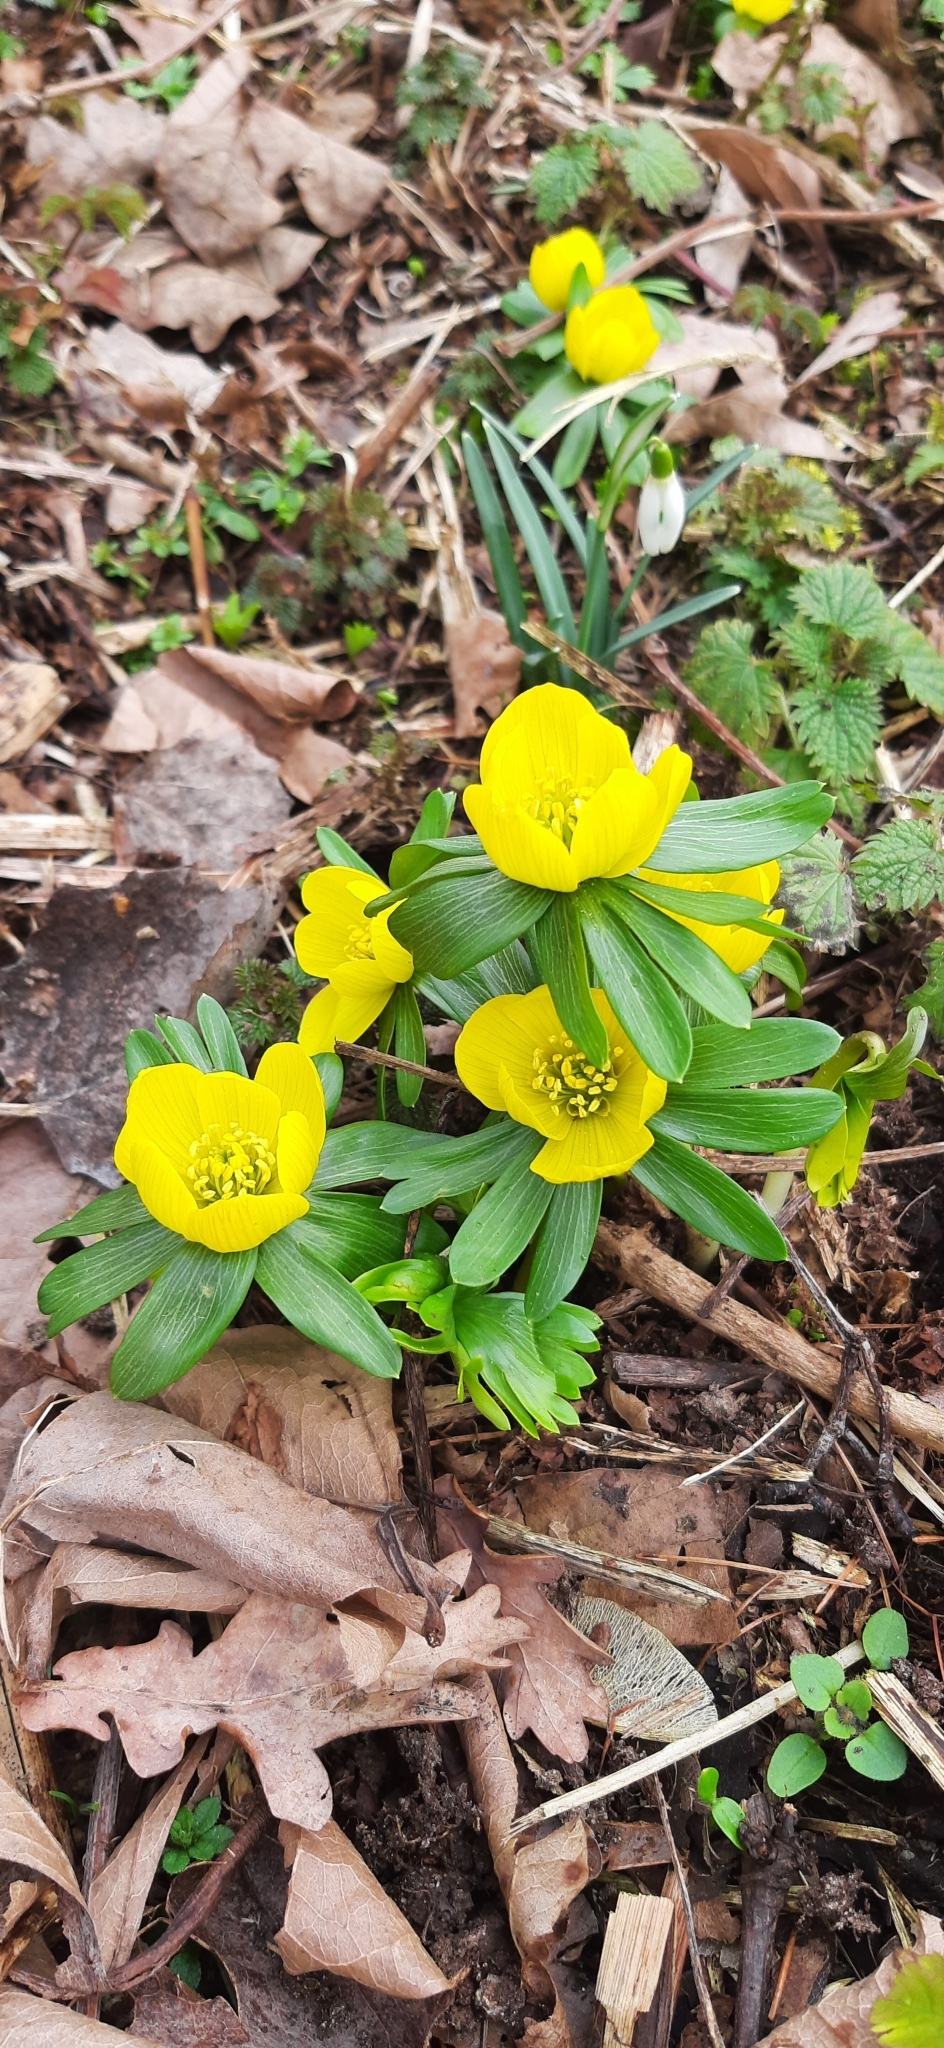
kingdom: Plantae
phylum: Tracheophyta
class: Magnoliopsida
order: Ranunculales
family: Ranunculaceae
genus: Eranthis
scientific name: Eranthis hyemalis
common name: Winter aconite
